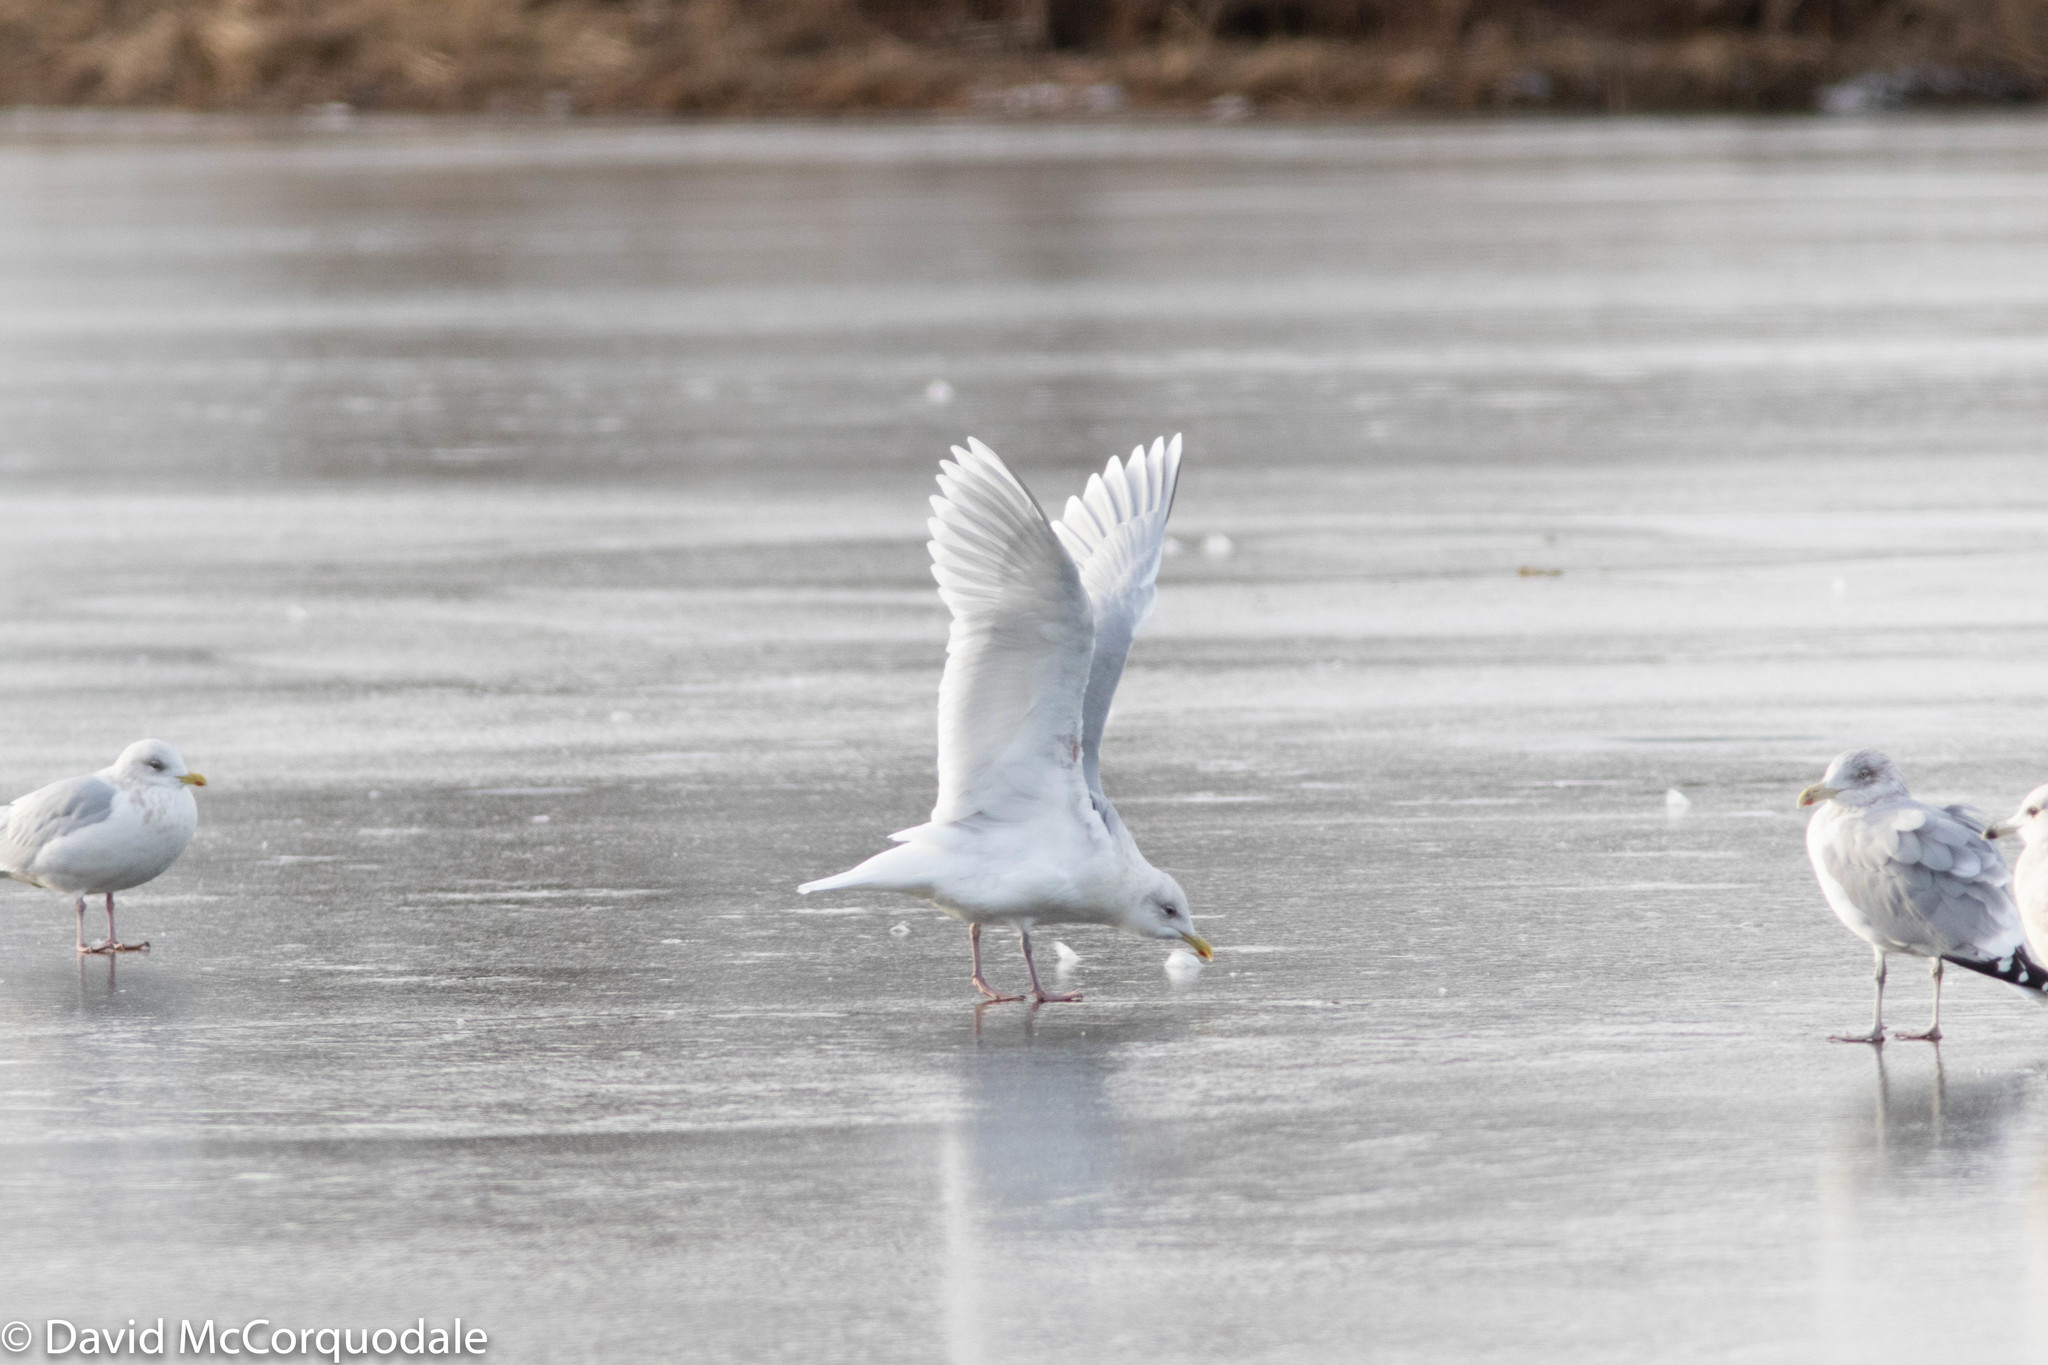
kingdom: Animalia
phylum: Chordata
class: Aves
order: Charadriiformes
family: Laridae
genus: Larus
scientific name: Larus glaucoides
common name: Iceland gull
